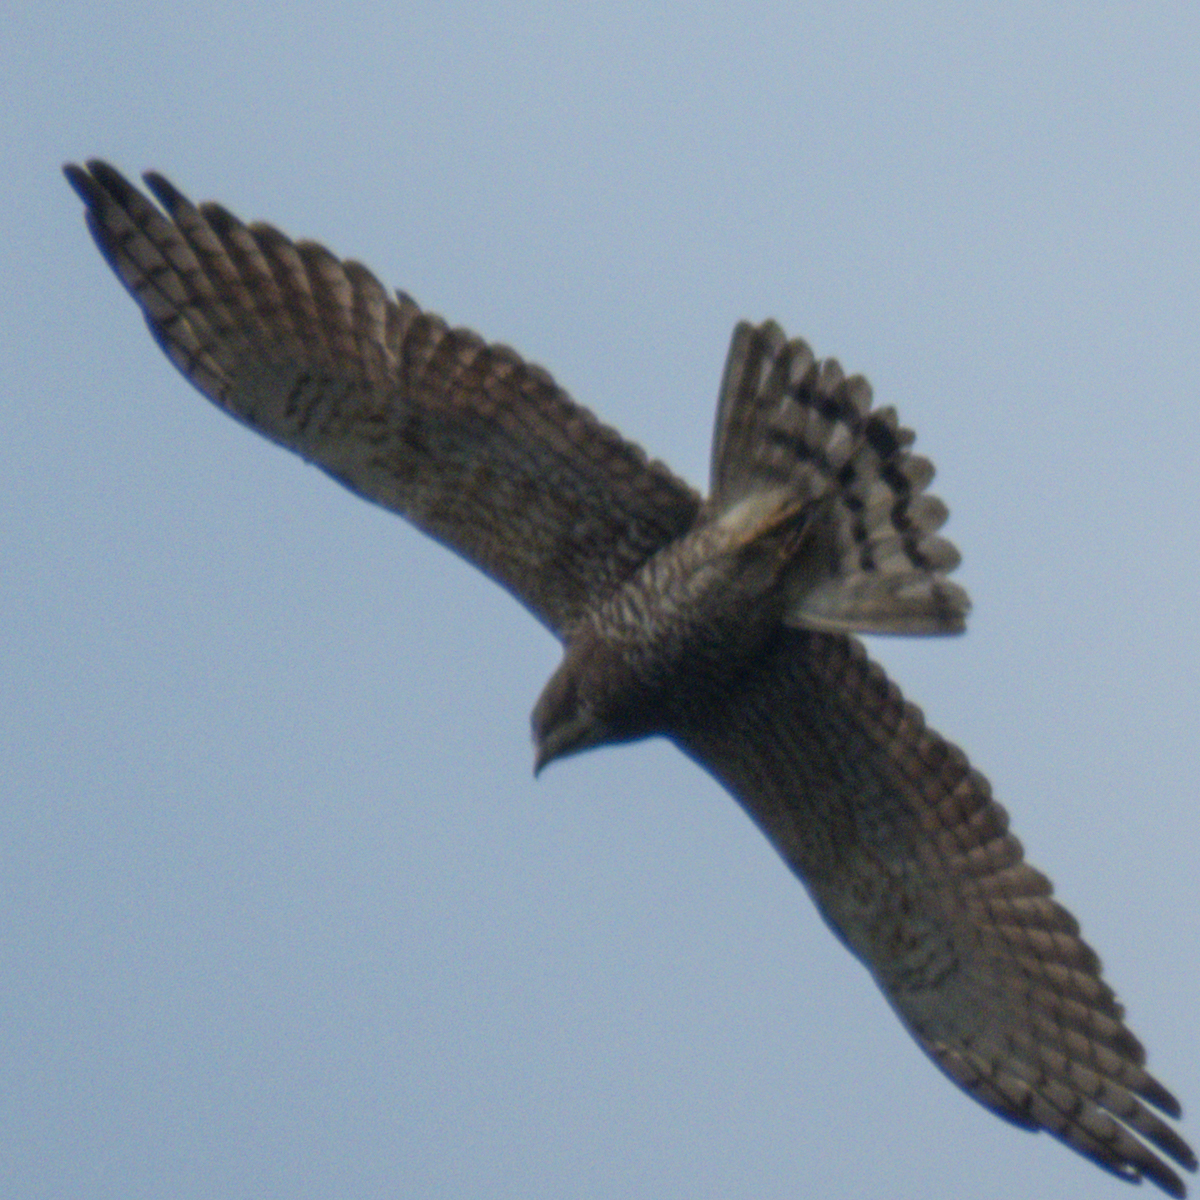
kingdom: Animalia
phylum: Chordata
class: Aves
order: Accipitriformes
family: Accipitridae
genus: Butastur
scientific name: Butastur indicus
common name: Grey-faced buzzard
